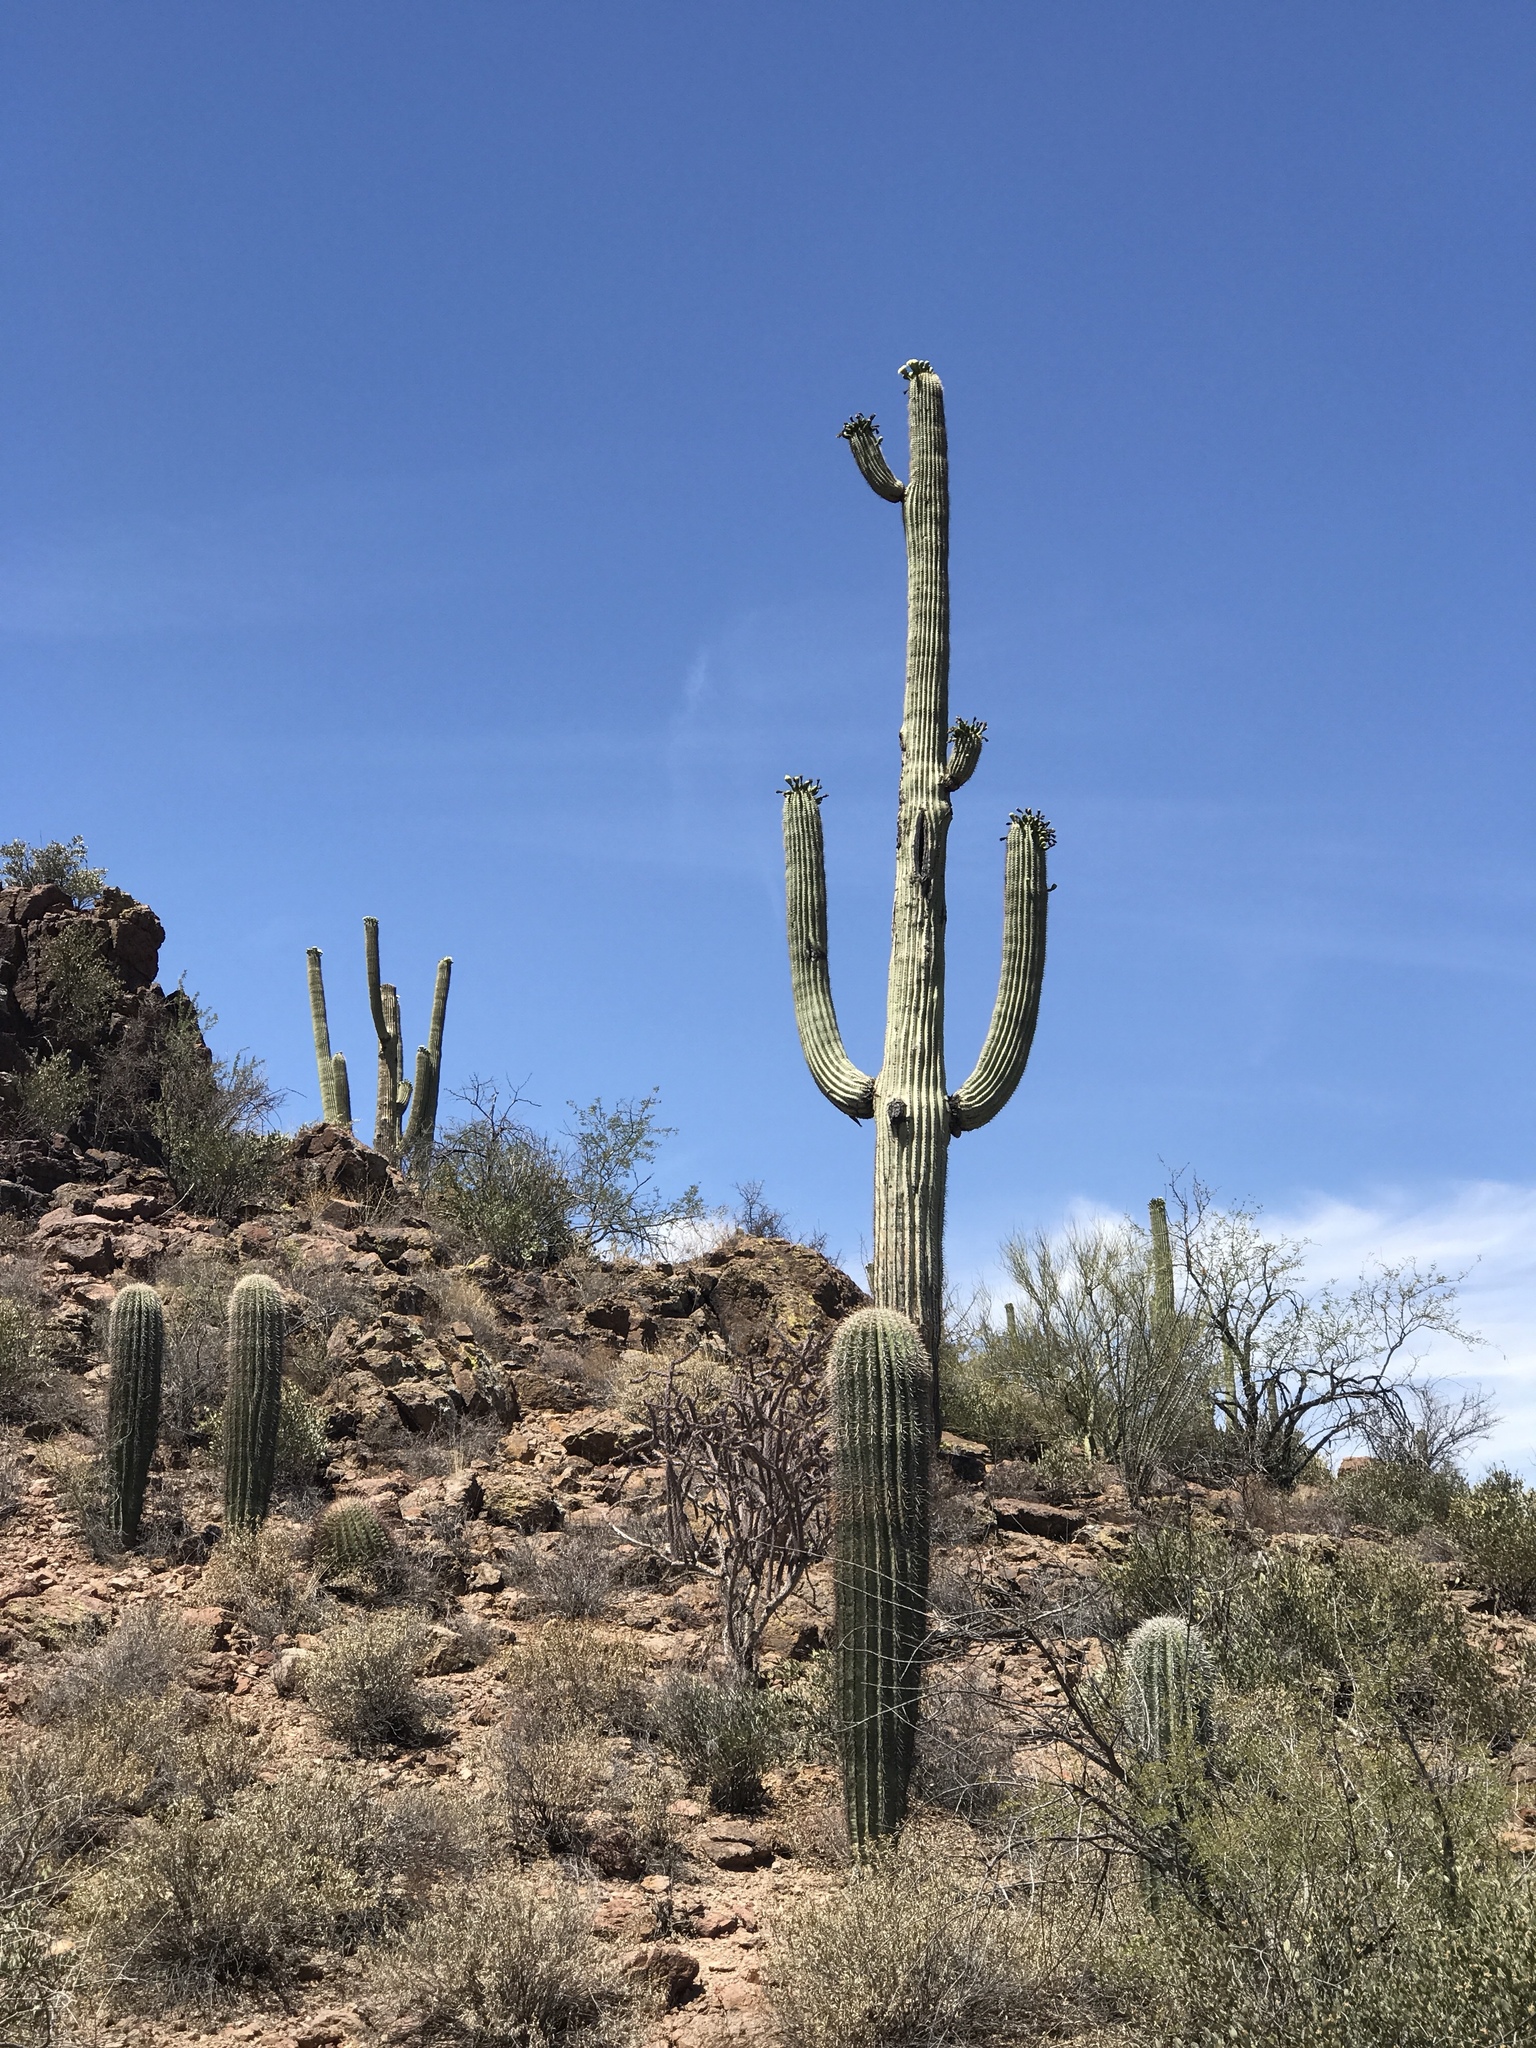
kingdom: Plantae
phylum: Tracheophyta
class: Magnoliopsida
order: Caryophyllales
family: Cactaceae
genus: Carnegiea
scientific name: Carnegiea gigantea
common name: Saguaro
